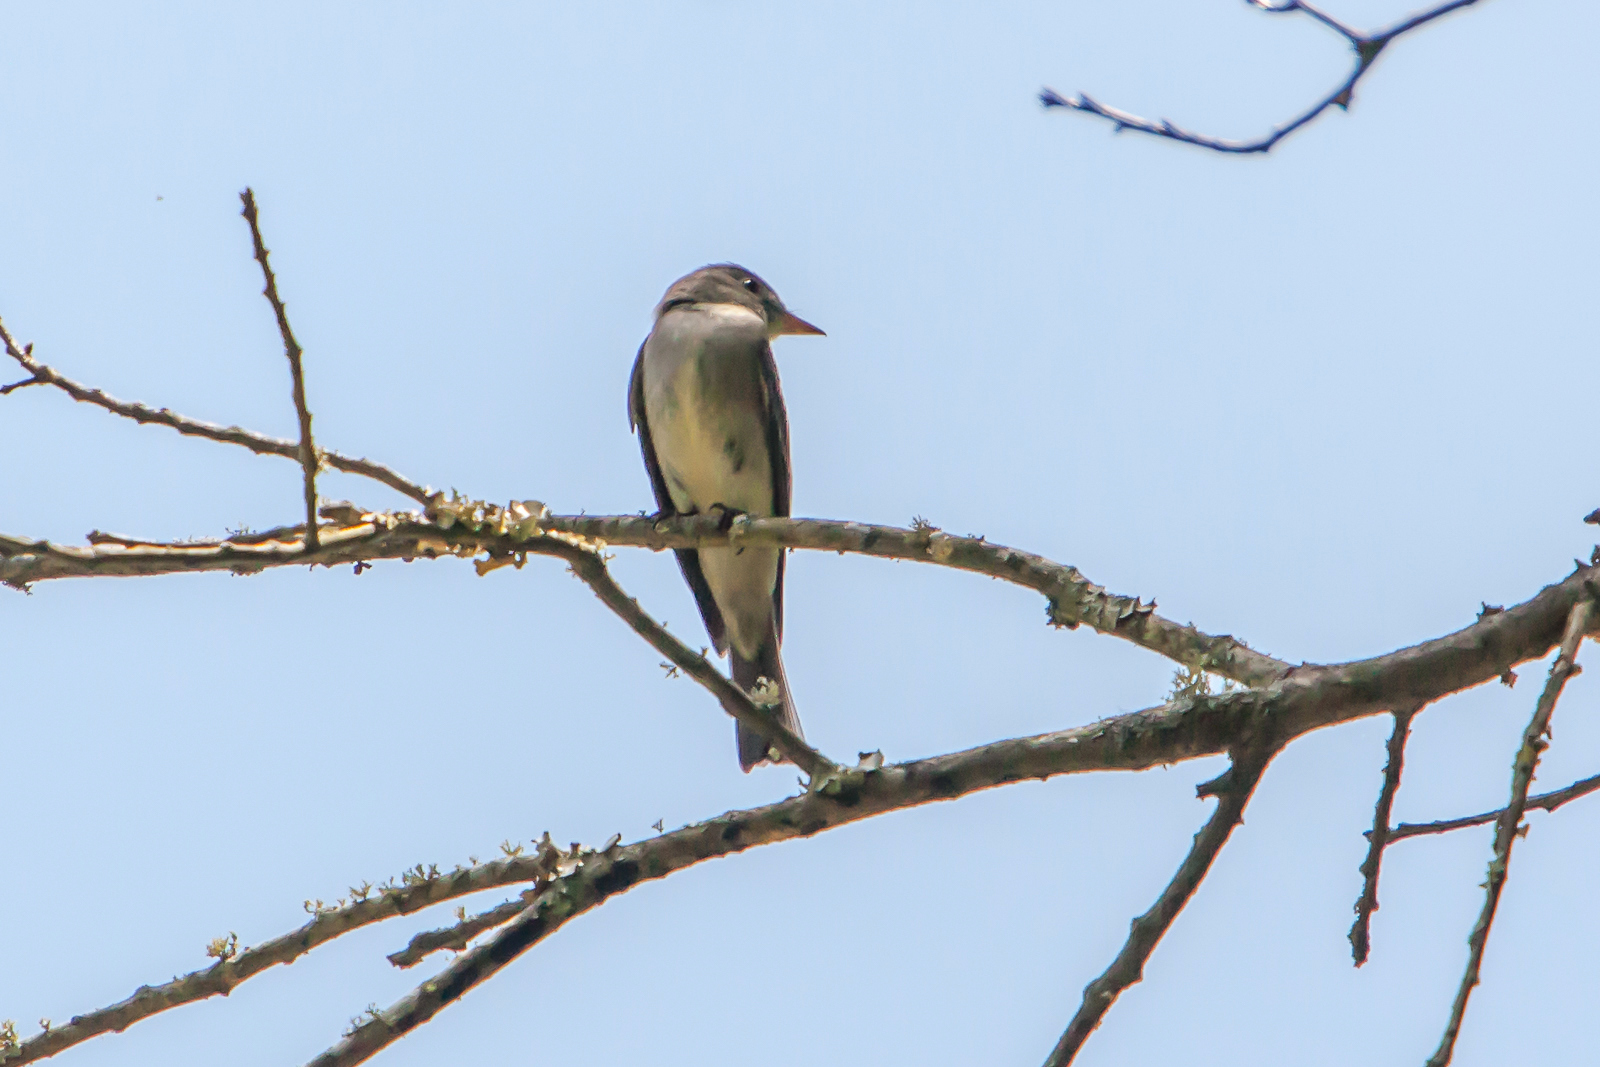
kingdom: Animalia
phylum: Chordata
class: Aves
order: Passeriformes
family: Tyrannidae
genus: Contopus
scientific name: Contopus virens
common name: Eastern wood-pewee
